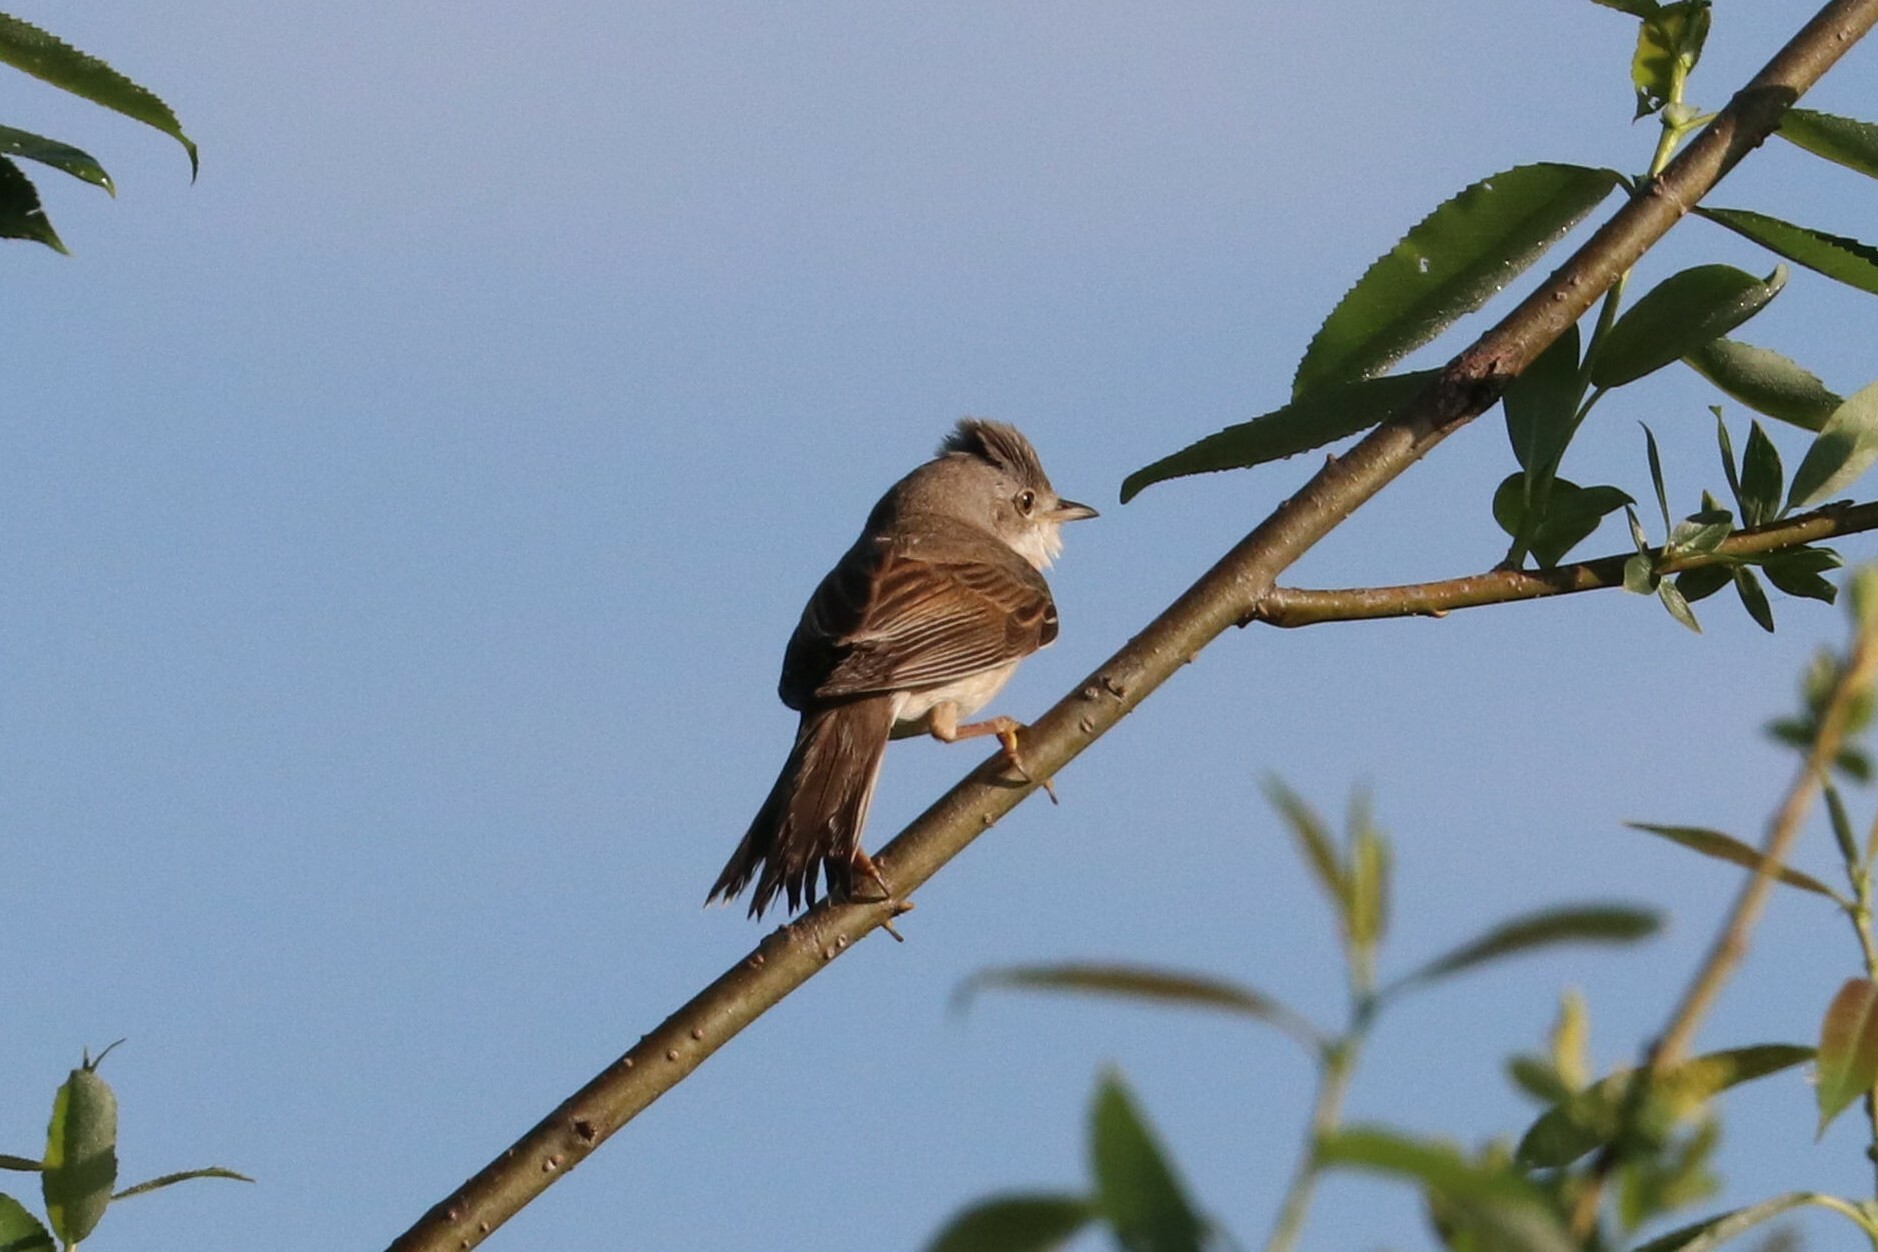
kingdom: Animalia
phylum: Chordata
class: Aves
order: Passeriformes
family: Sylviidae
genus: Sylvia
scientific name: Sylvia communis
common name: Common whitethroat
